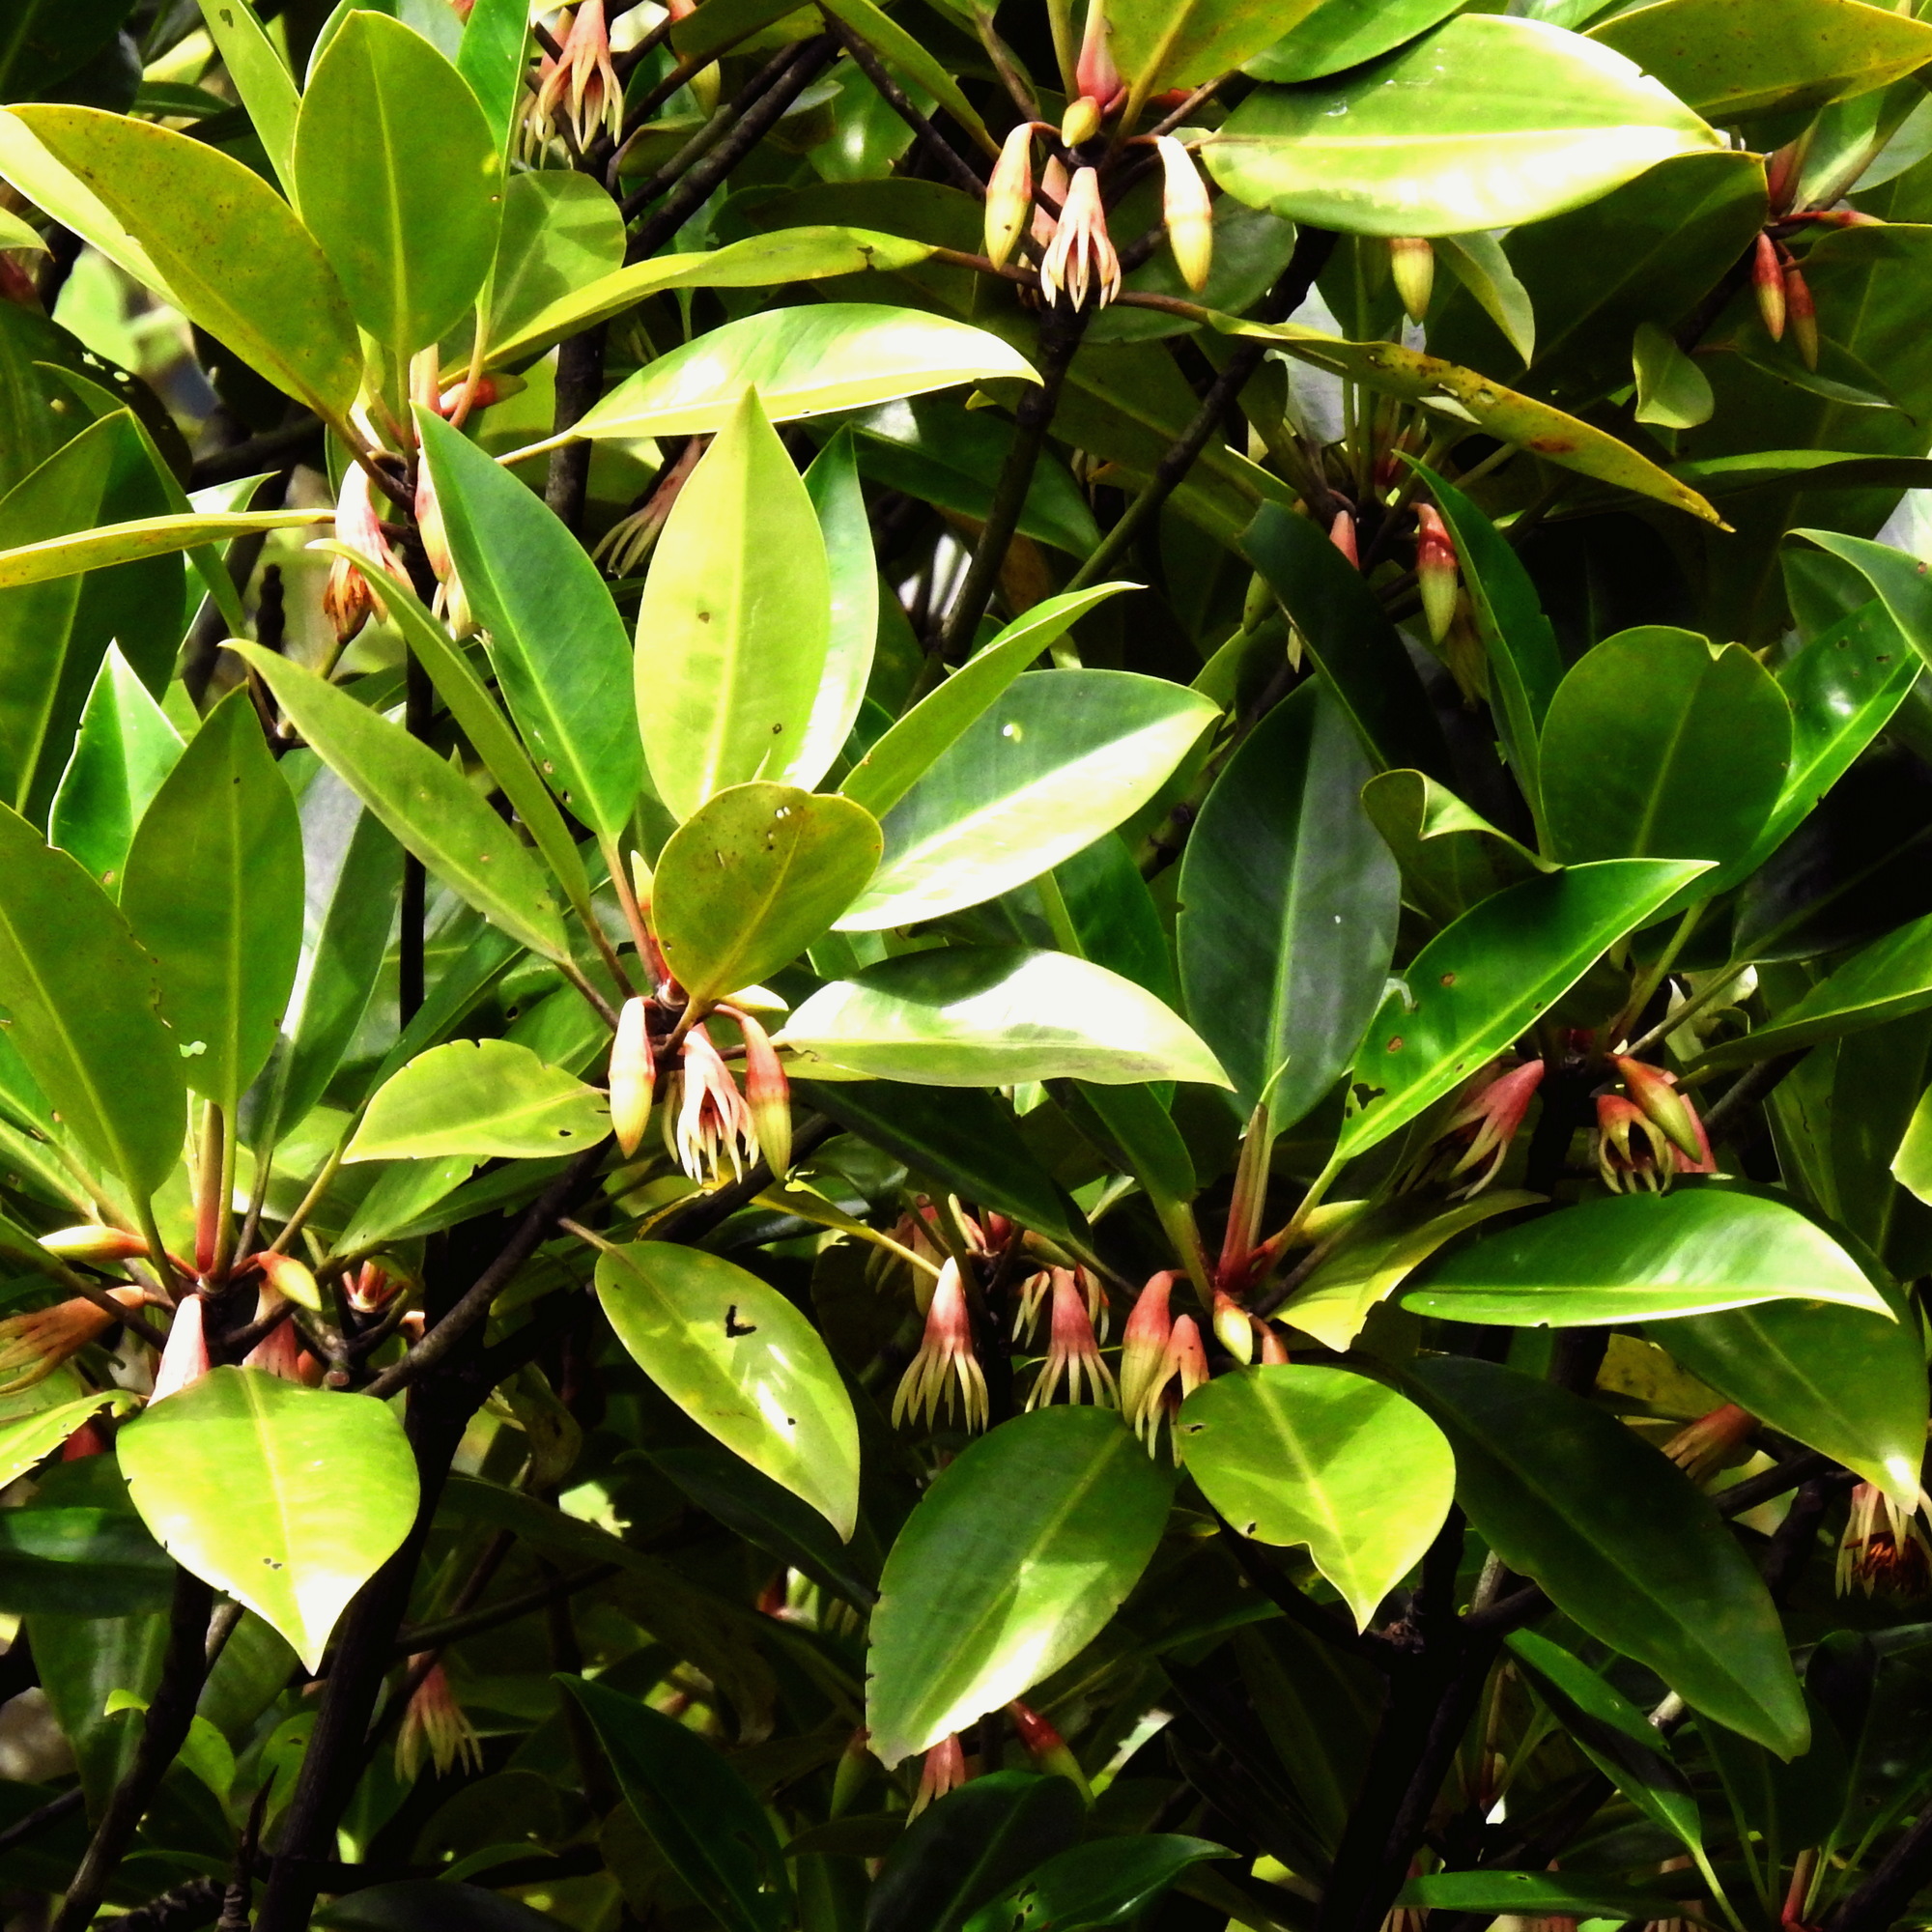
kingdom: Plantae
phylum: Tracheophyta
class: Magnoliopsida
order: Malpighiales
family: Rhizophoraceae
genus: Bruguiera
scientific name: Bruguiera gymnorhiza
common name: Oriental mangrove
